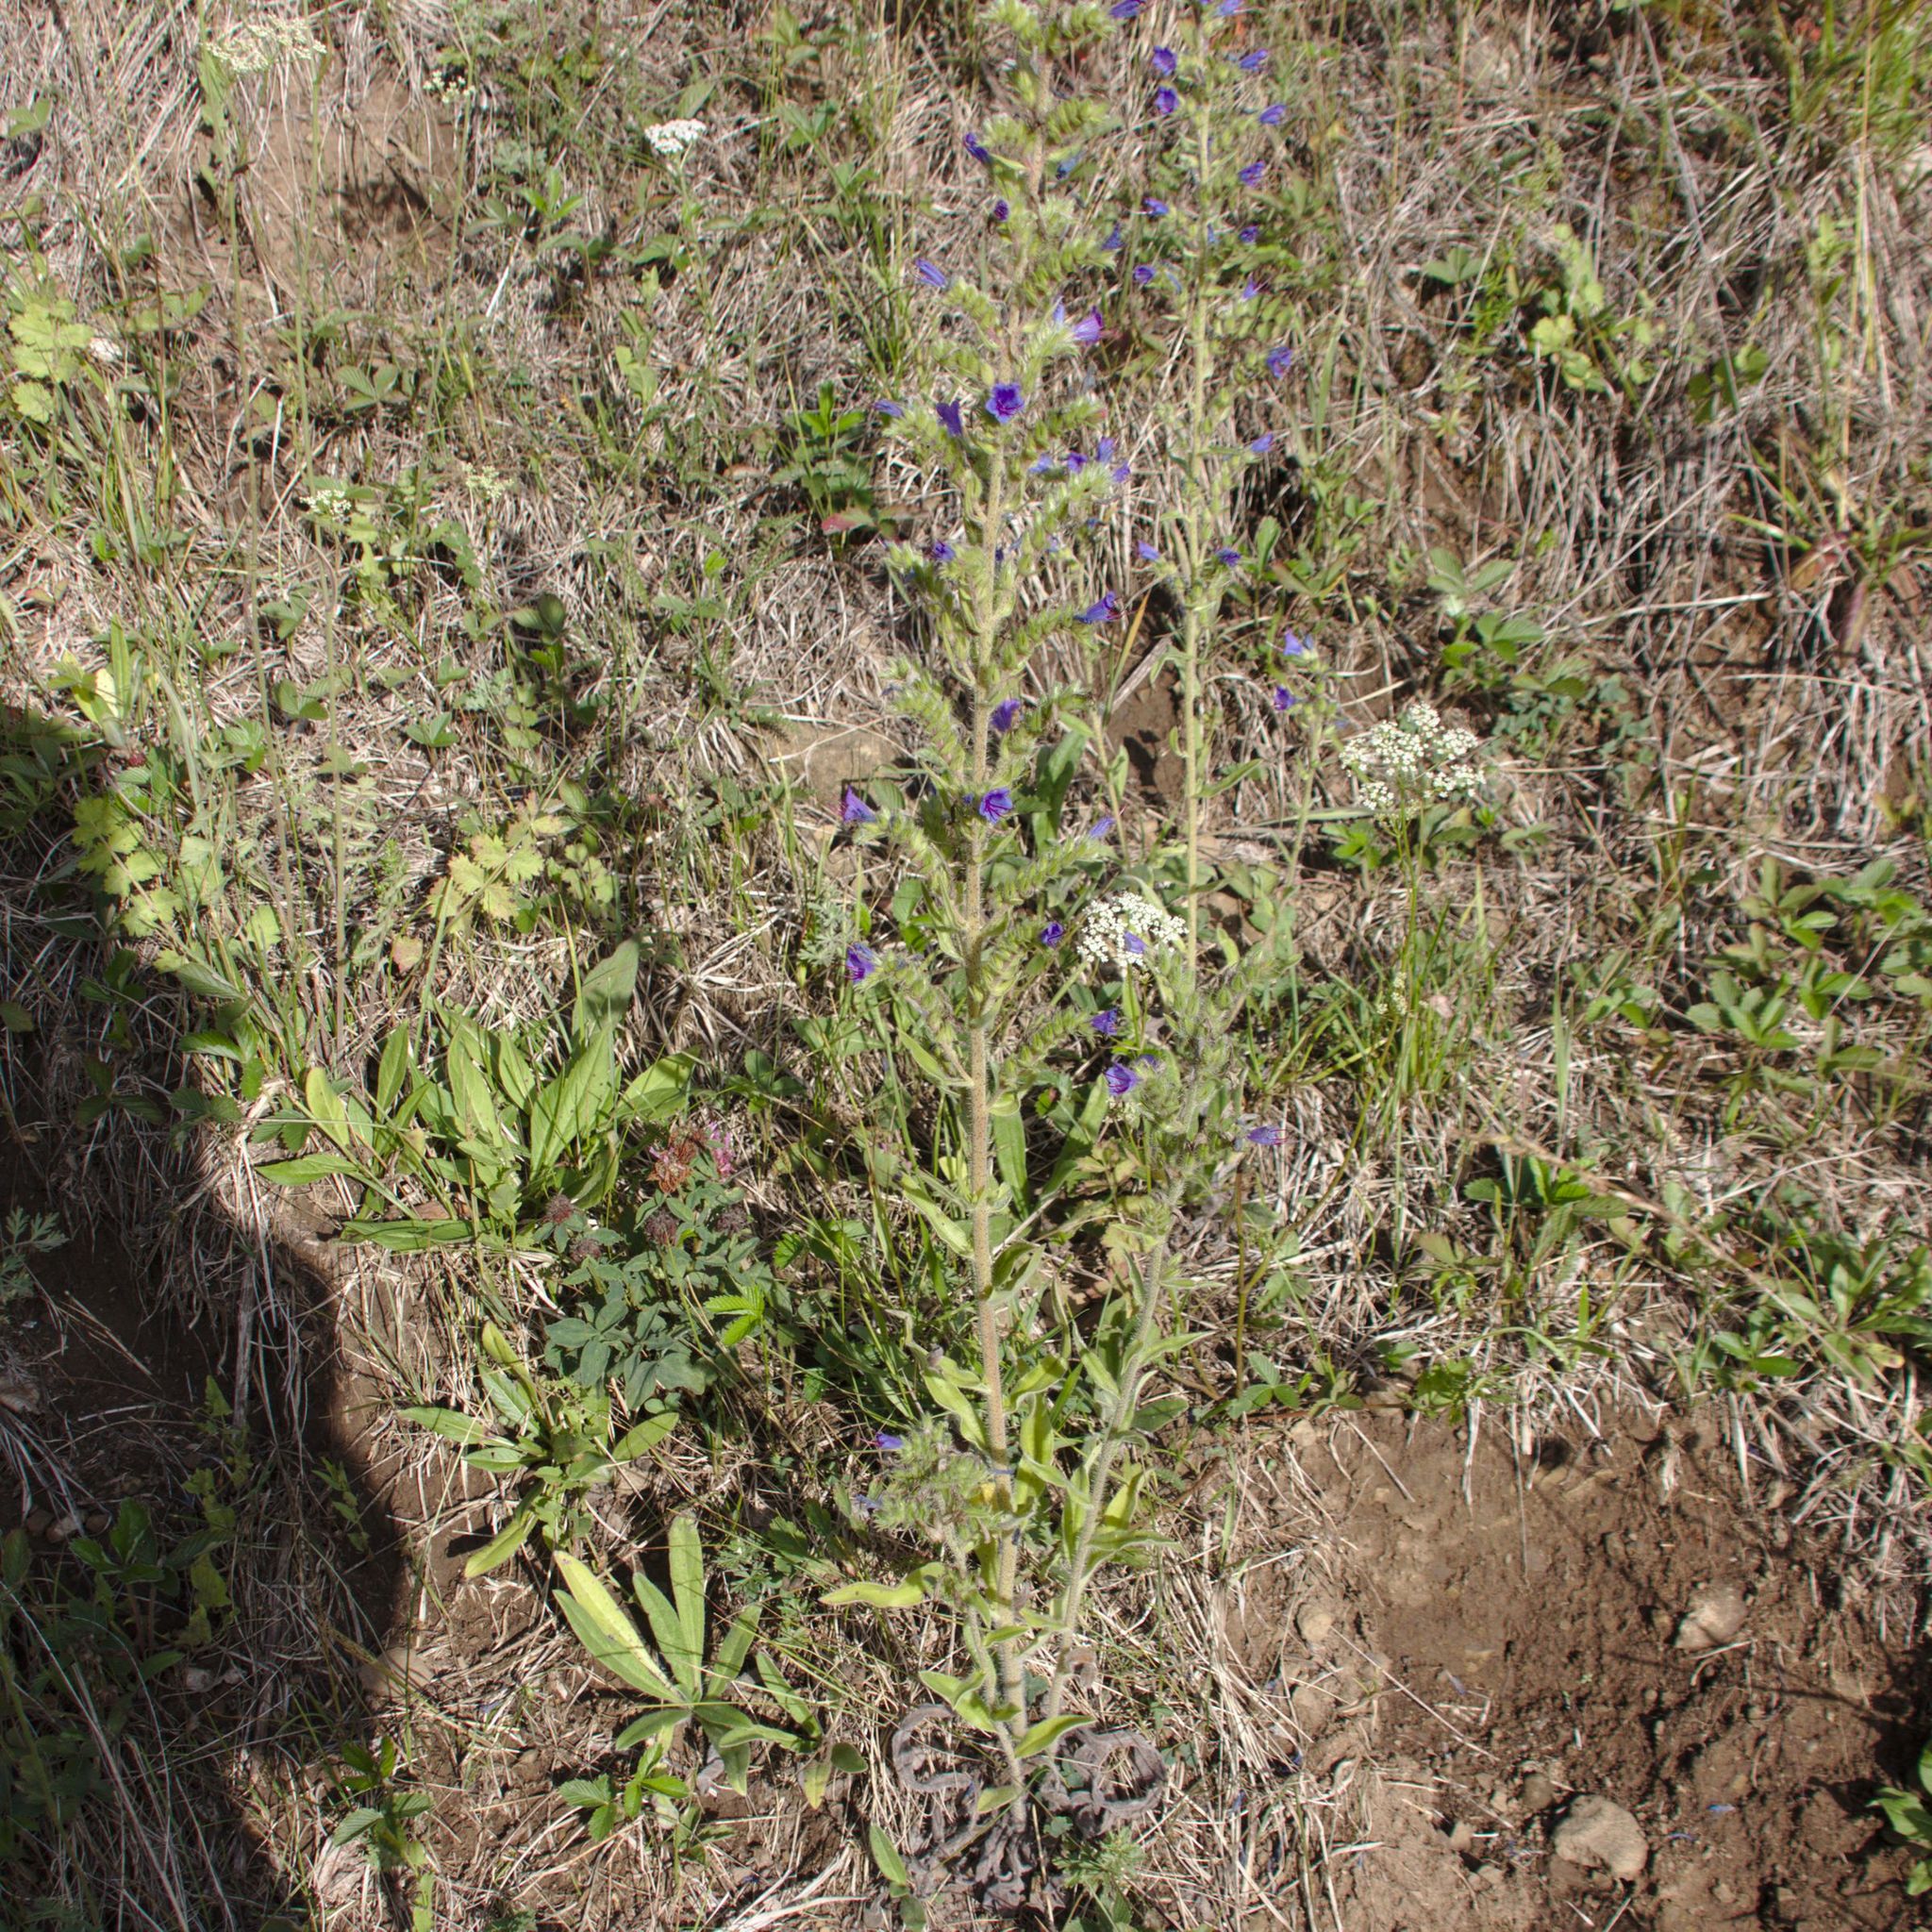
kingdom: Plantae
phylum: Tracheophyta
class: Magnoliopsida
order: Boraginales
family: Boraginaceae
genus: Echium
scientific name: Echium vulgare
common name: Common viper's bugloss
